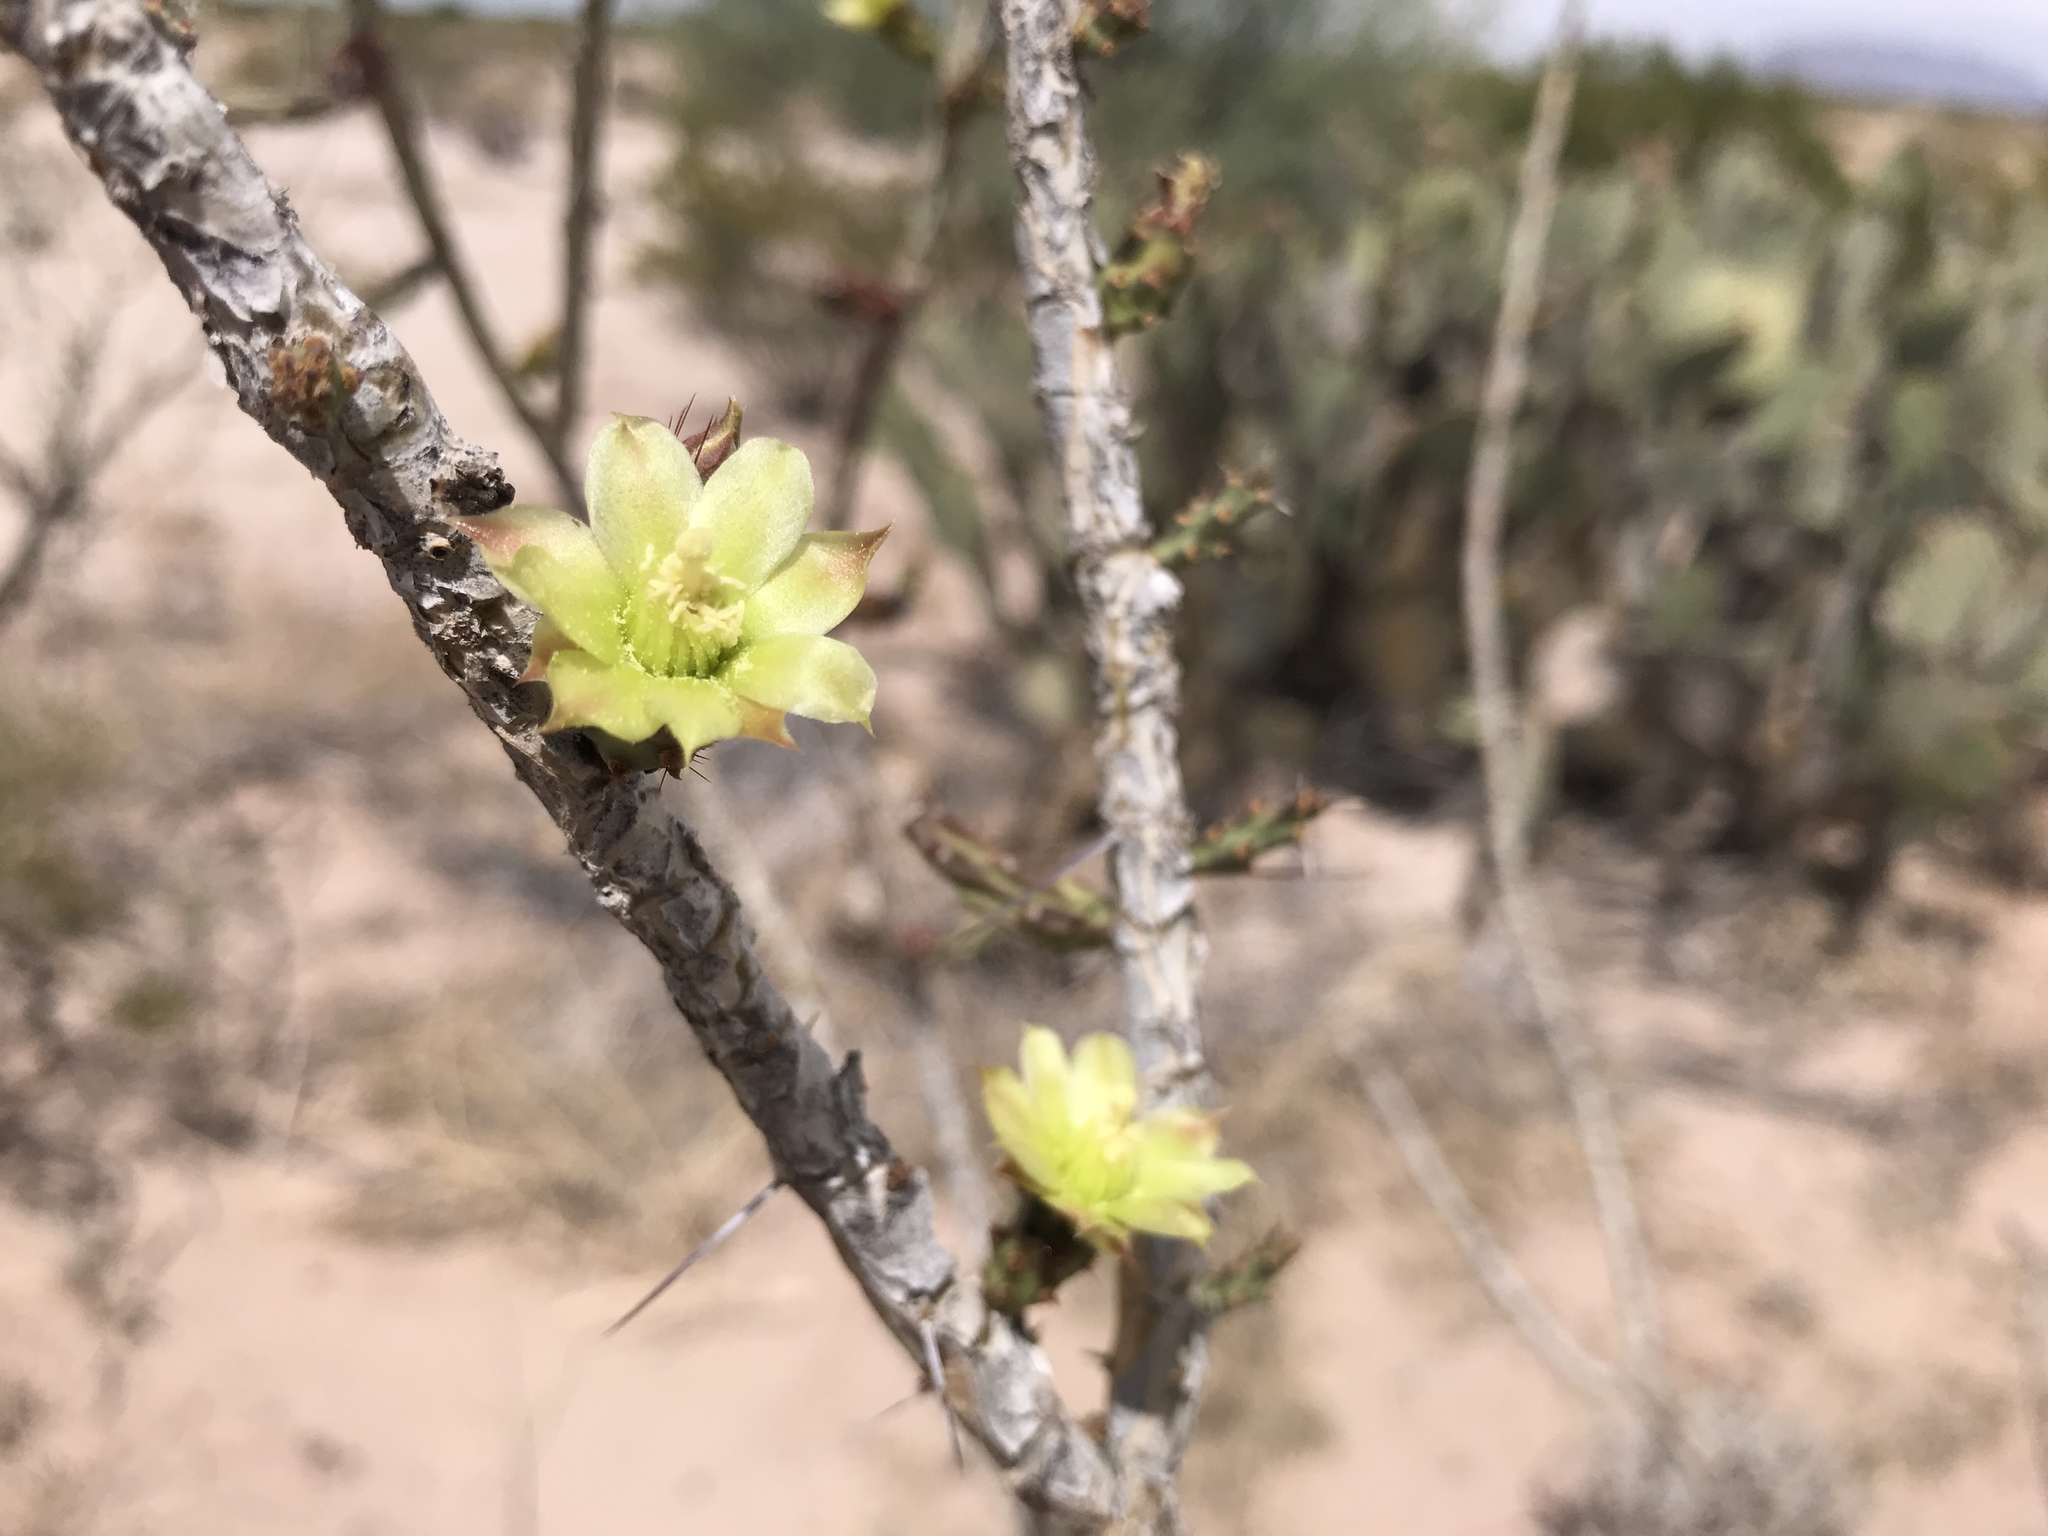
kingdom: Plantae
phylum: Tracheophyta
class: Magnoliopsida
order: Caryophyllales
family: Cactaceae
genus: Cylindropuntia
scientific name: Cylindropuntia leptocaulis
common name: Christmas cactus
